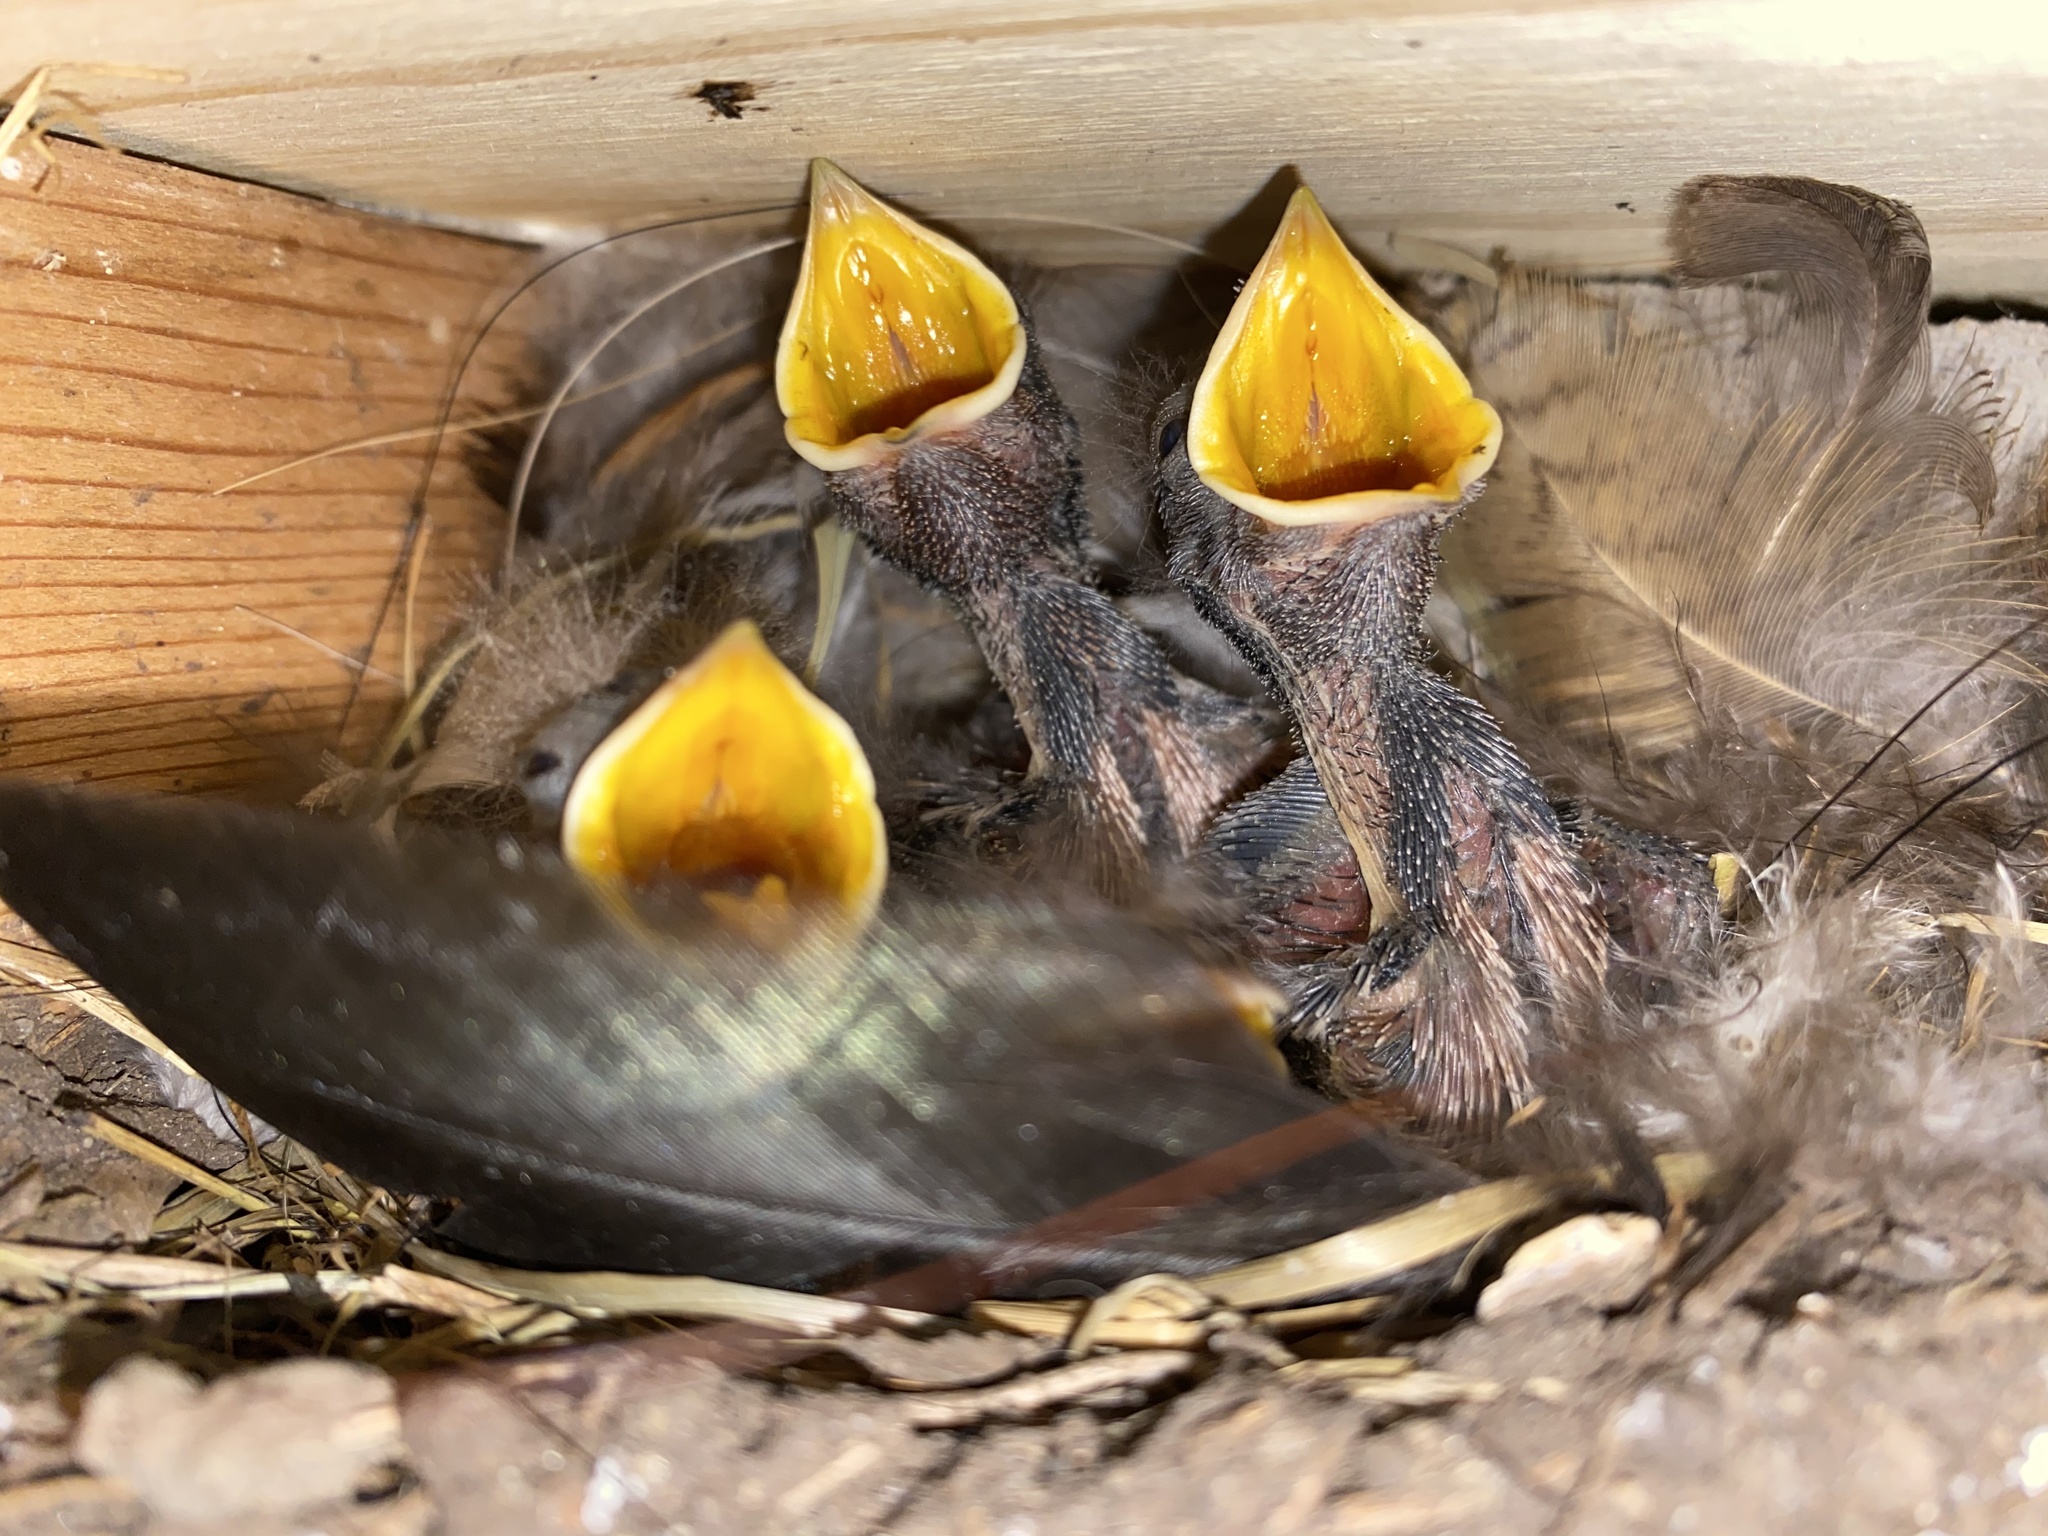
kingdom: Animalia
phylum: Chordata
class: Aves
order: Passeriformes
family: Hirundinidae
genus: Hirundo
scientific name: Hirundo rustica
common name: Barn swallow
